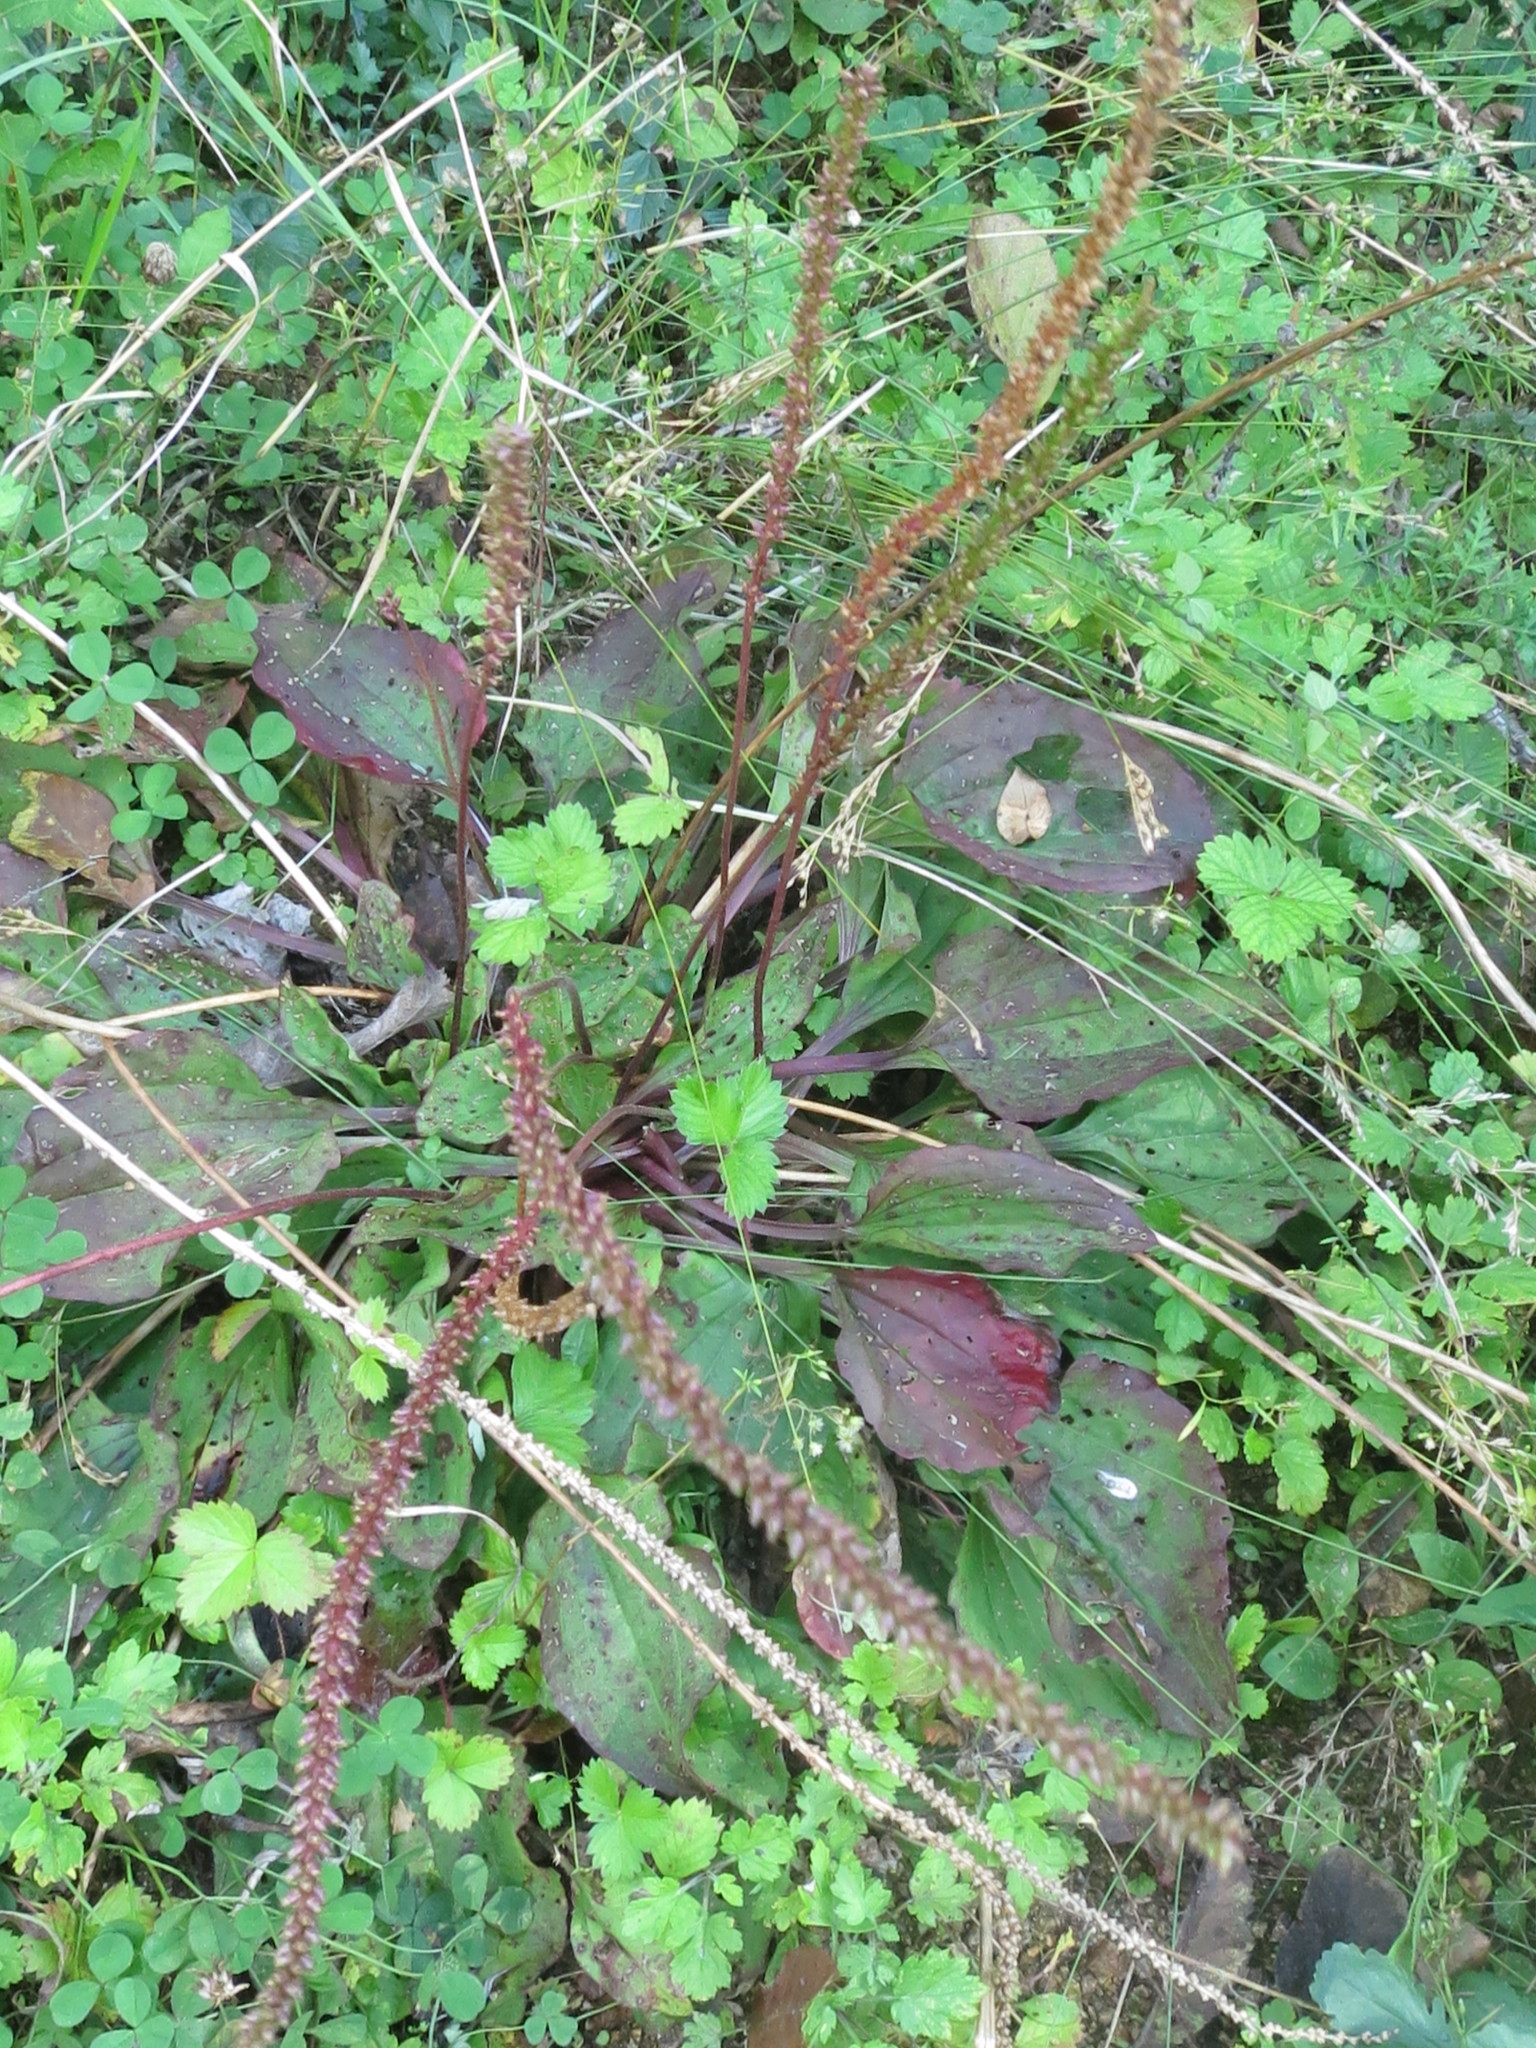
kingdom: Plantae
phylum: Tracheophyta
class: Magnoliopsida
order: Lamiales
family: Plantaginaceae
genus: Plantago
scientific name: Plantago major
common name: Common plantain
